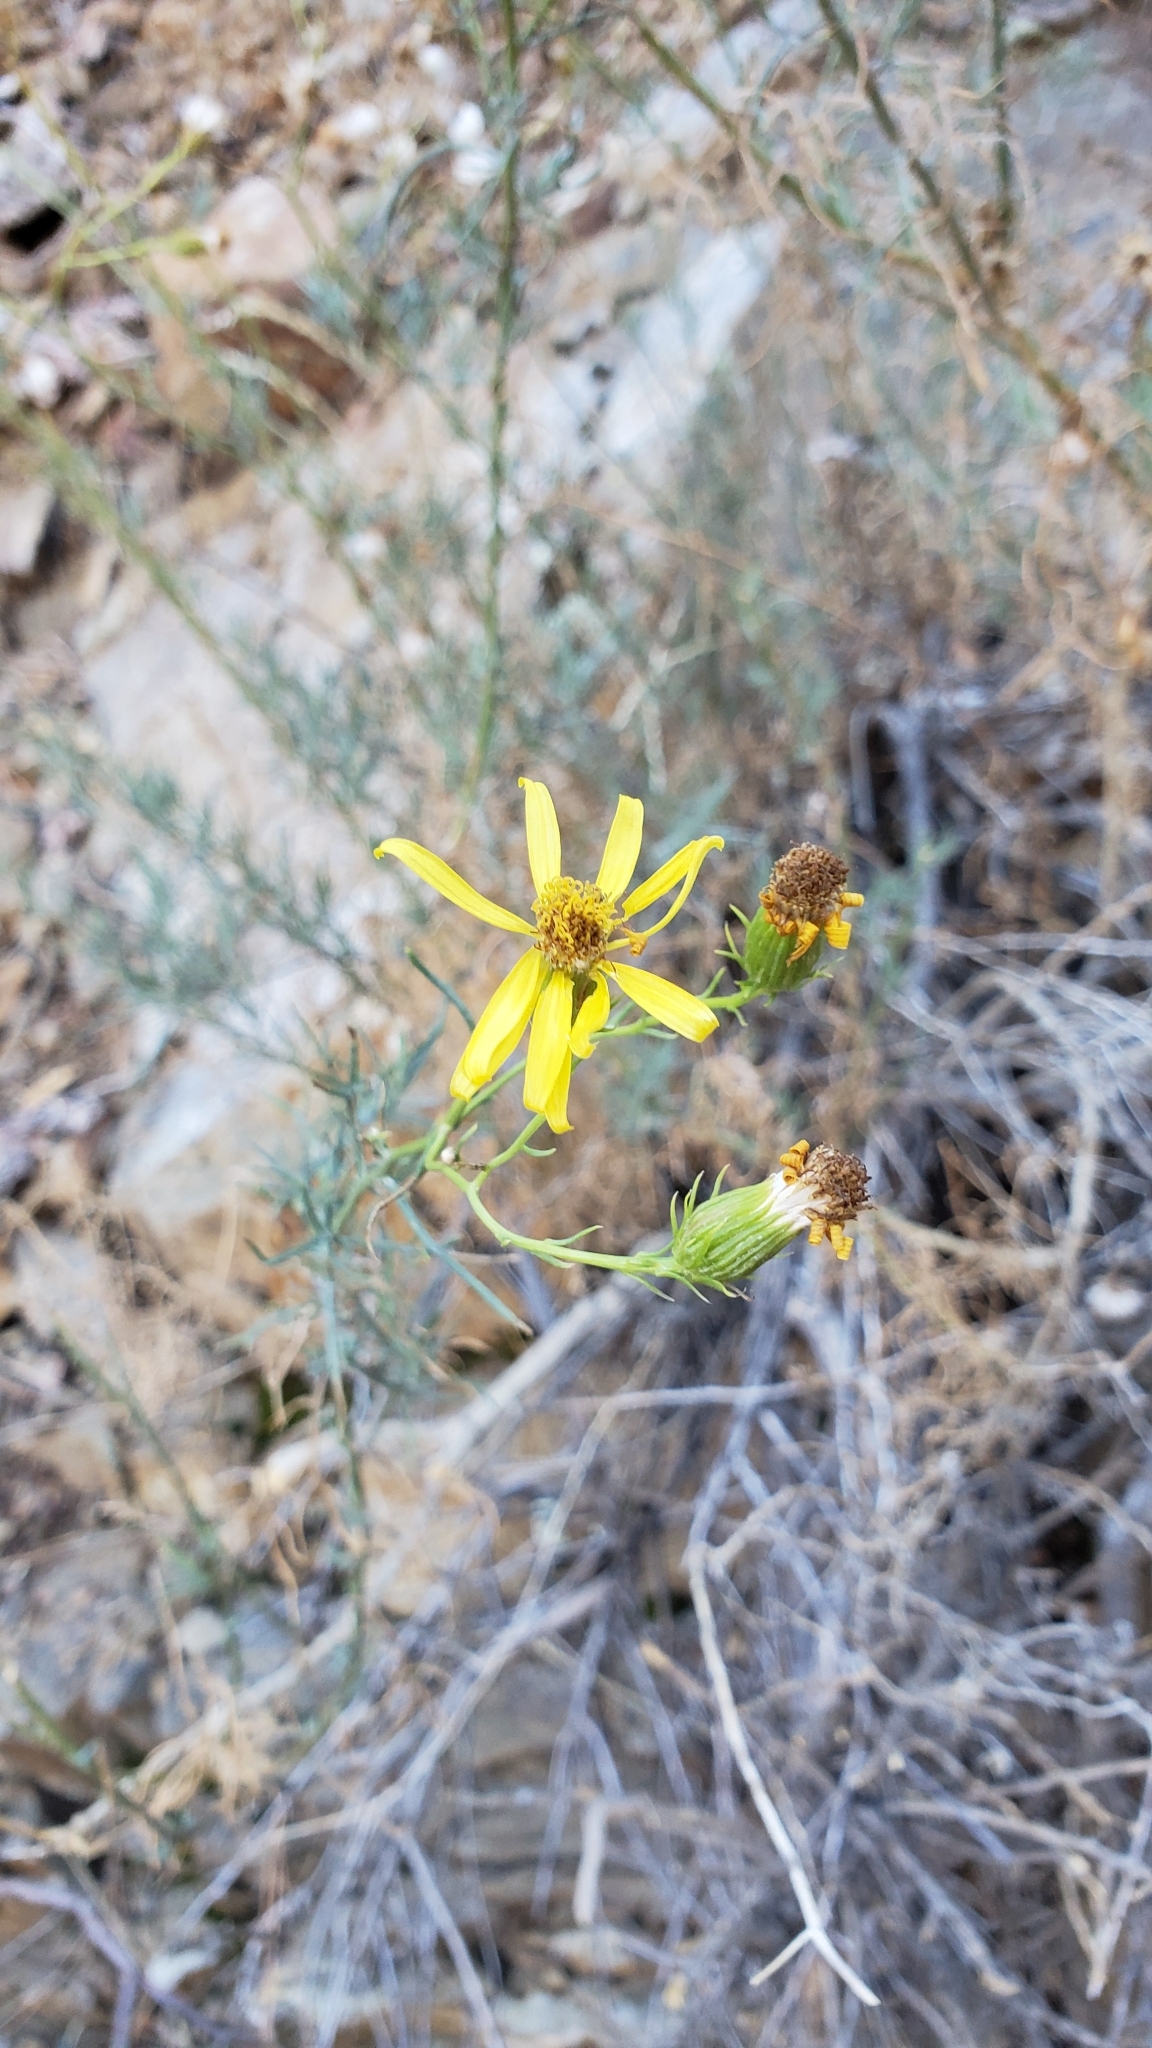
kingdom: Plantae
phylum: Tracheophyta
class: Magnoliopsida
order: Asterales
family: Asteraceae
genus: Senecio
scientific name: Senecio flaccidus
